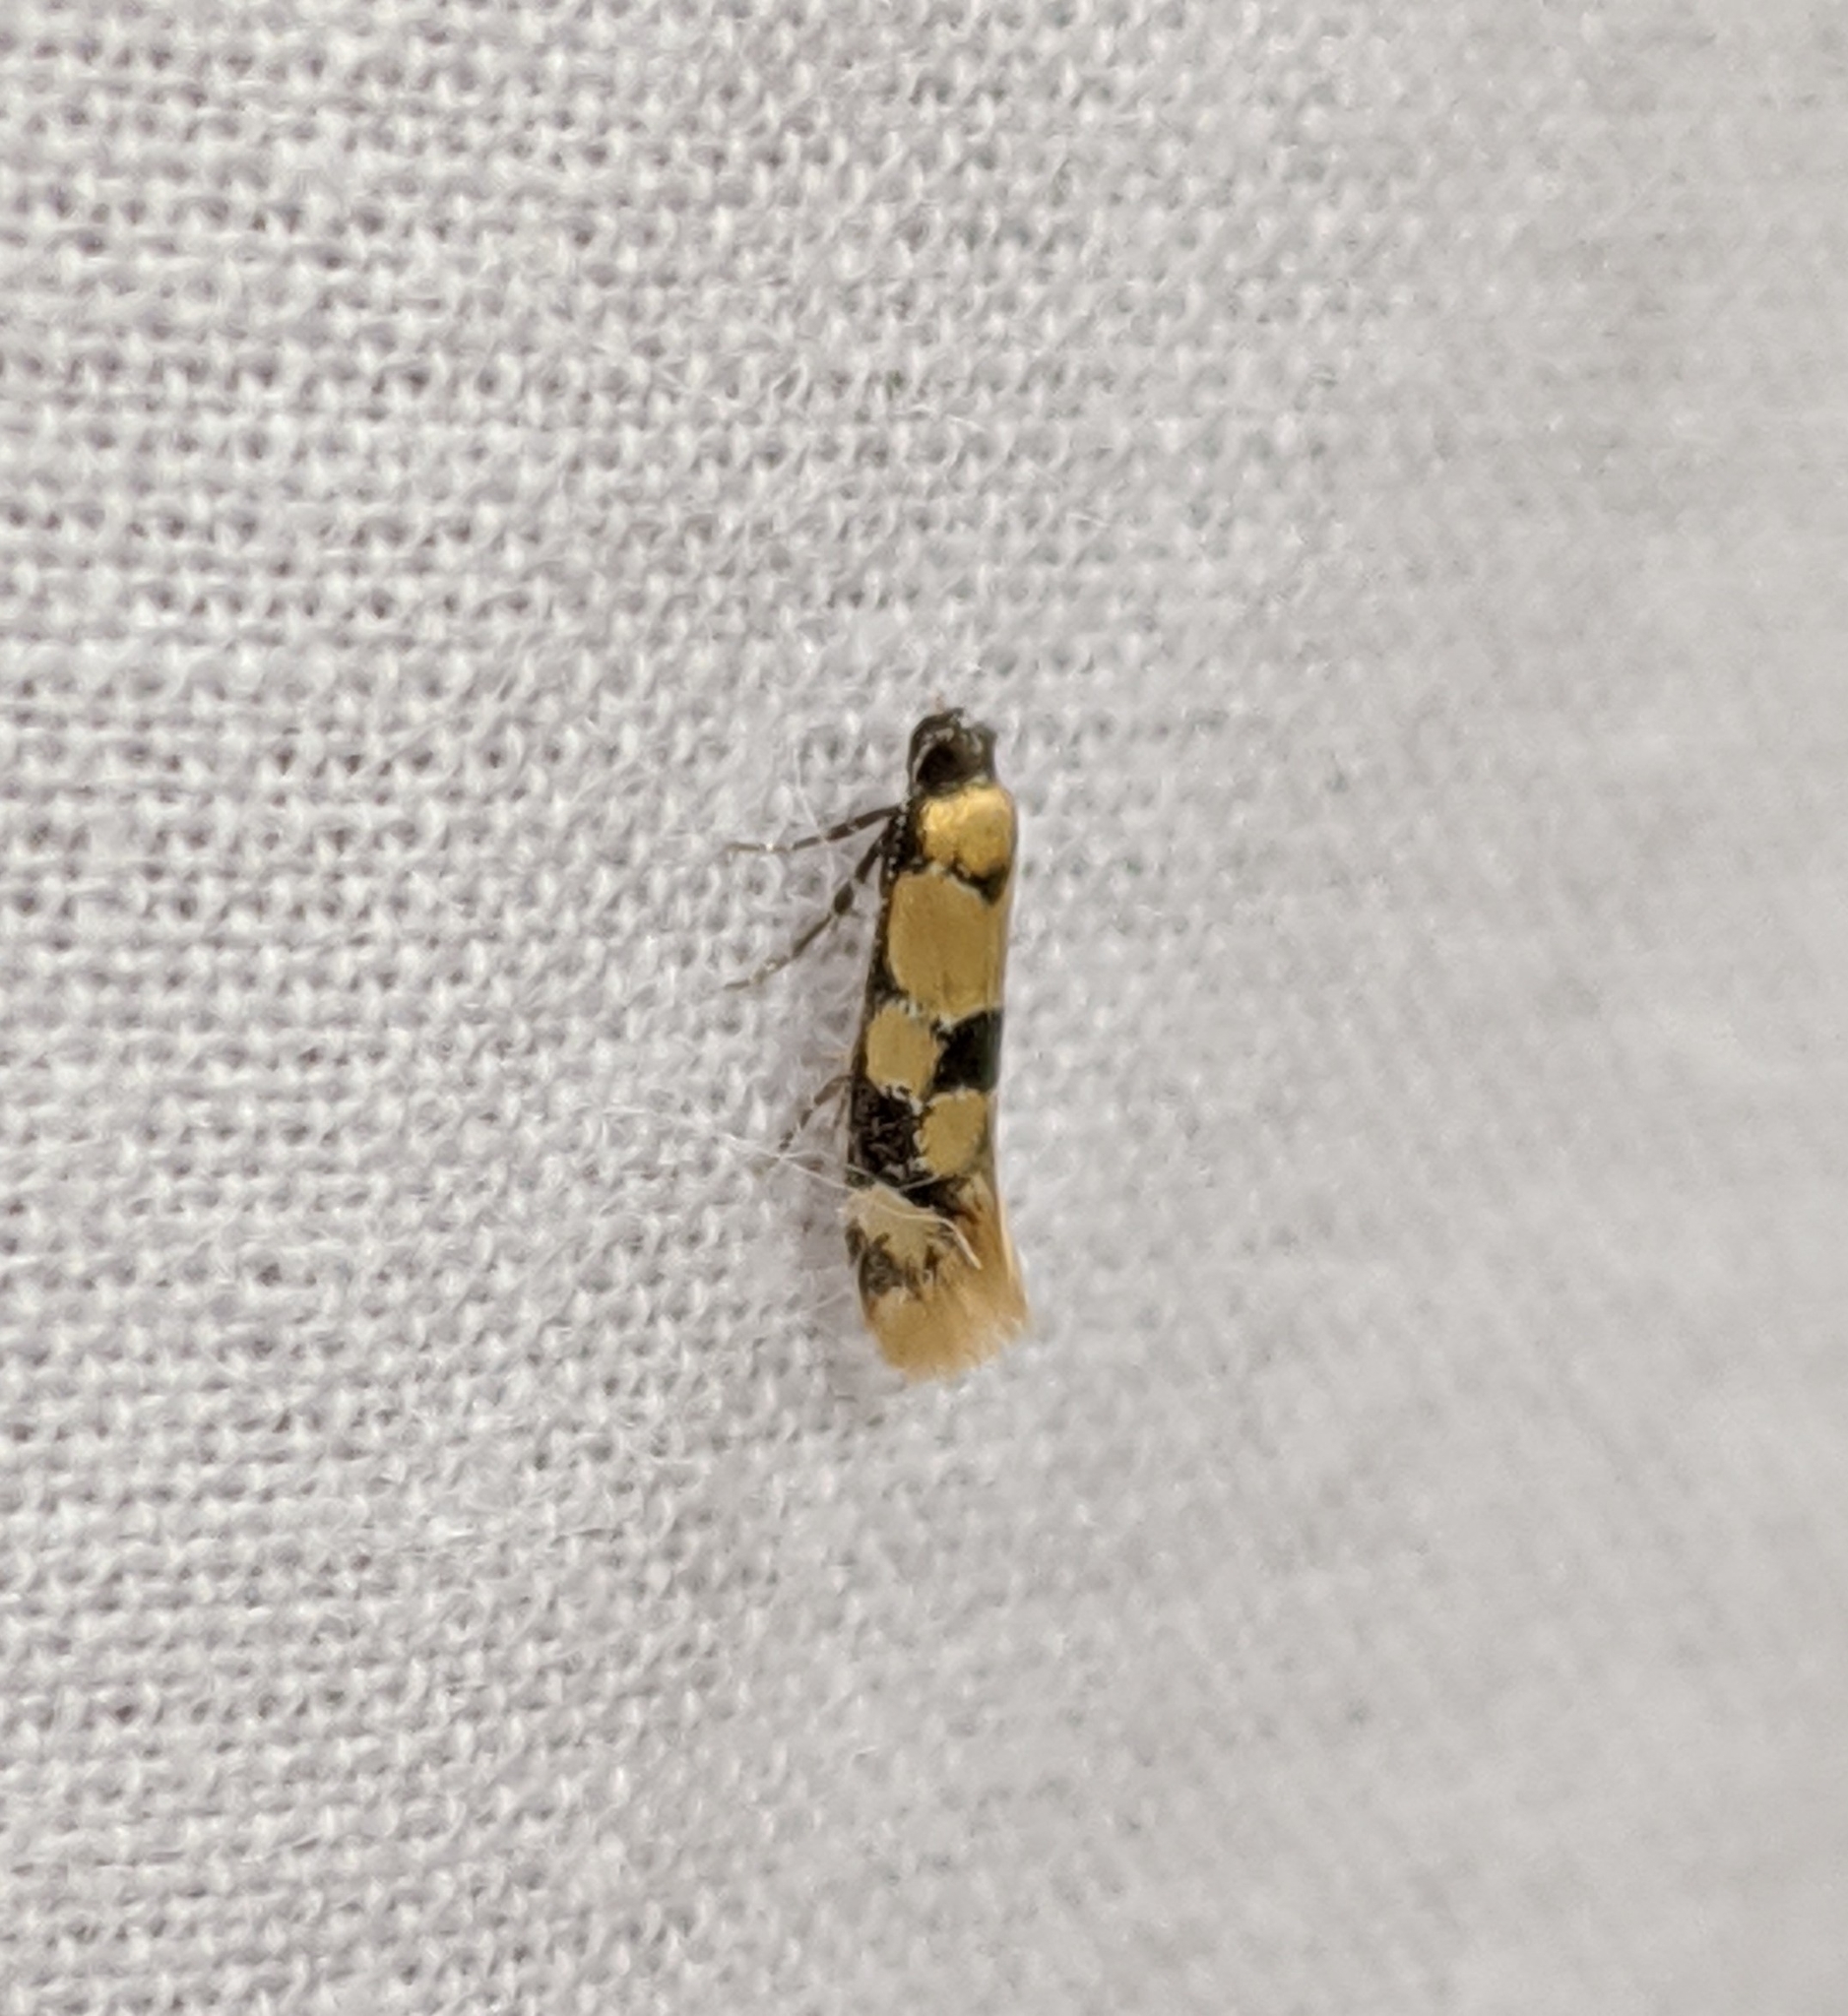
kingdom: Animalia
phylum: Arthropoda
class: Insecta
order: Lepidoptera
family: Oecophoridae
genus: Decantha
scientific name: Decantha stonda
